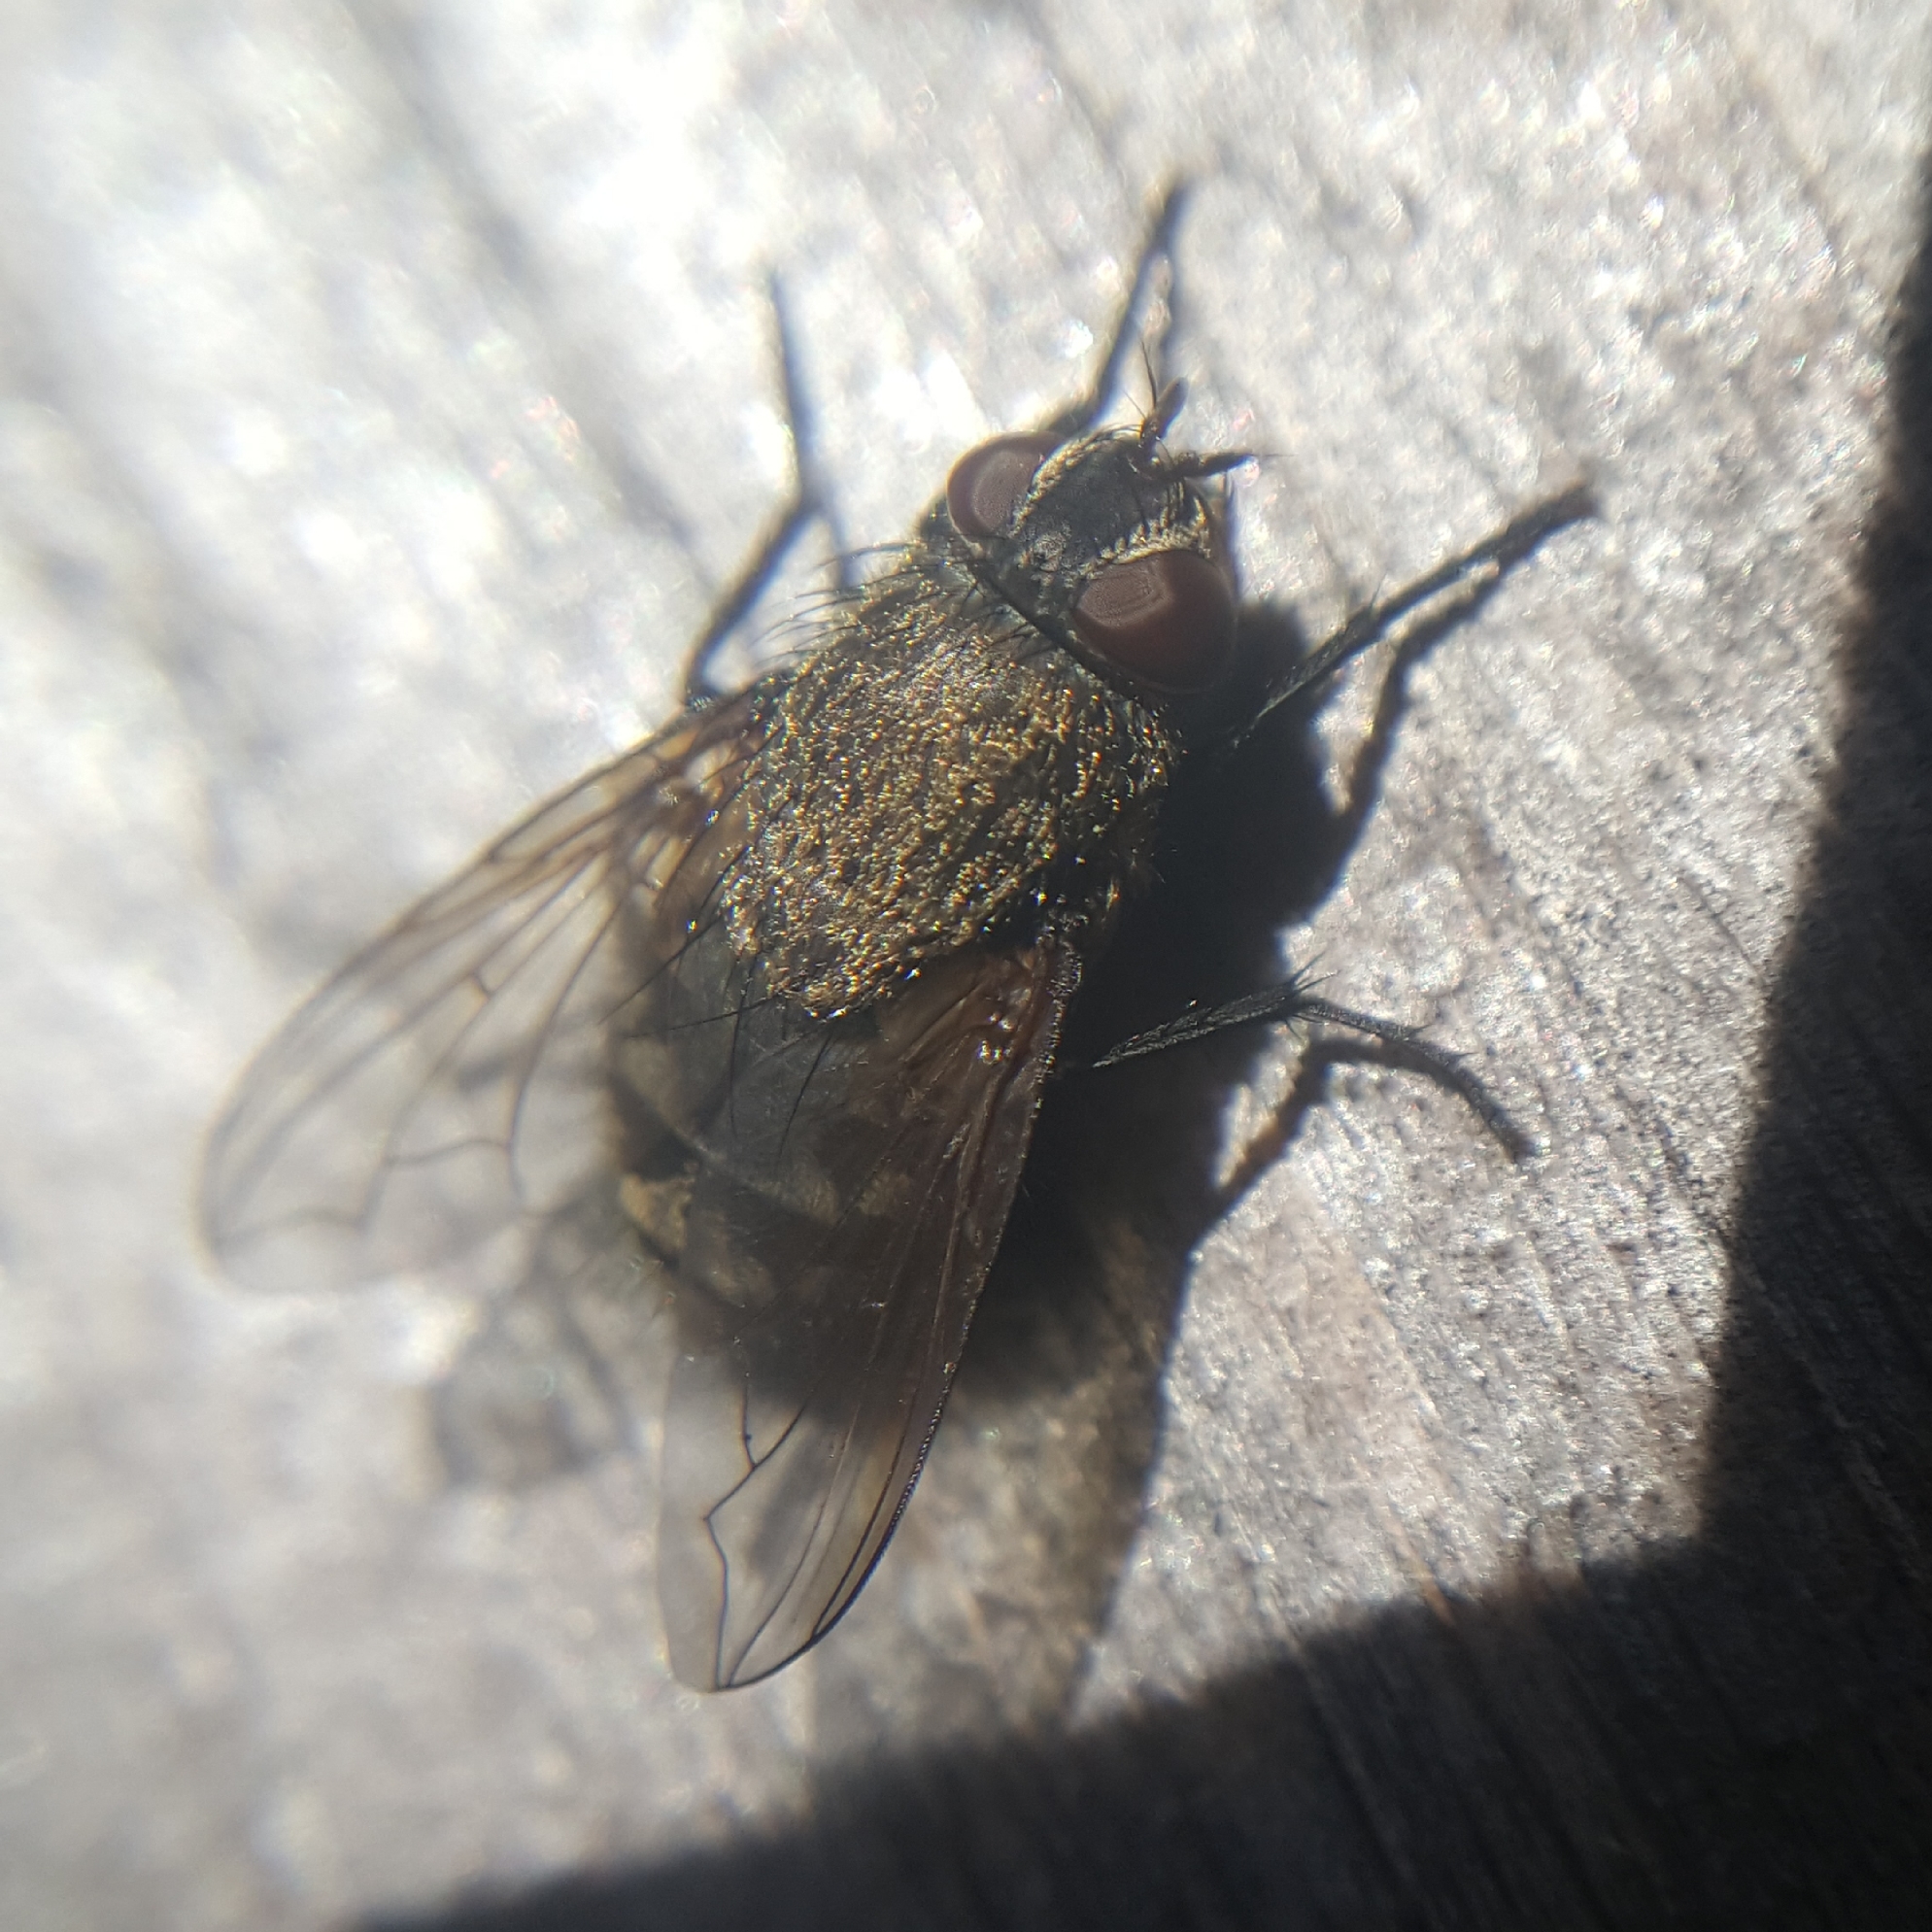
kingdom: Animalia
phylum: Arthropoda
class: Insecta
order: Diptera
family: Polleniidae
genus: Pollenia
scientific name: Pollenia
